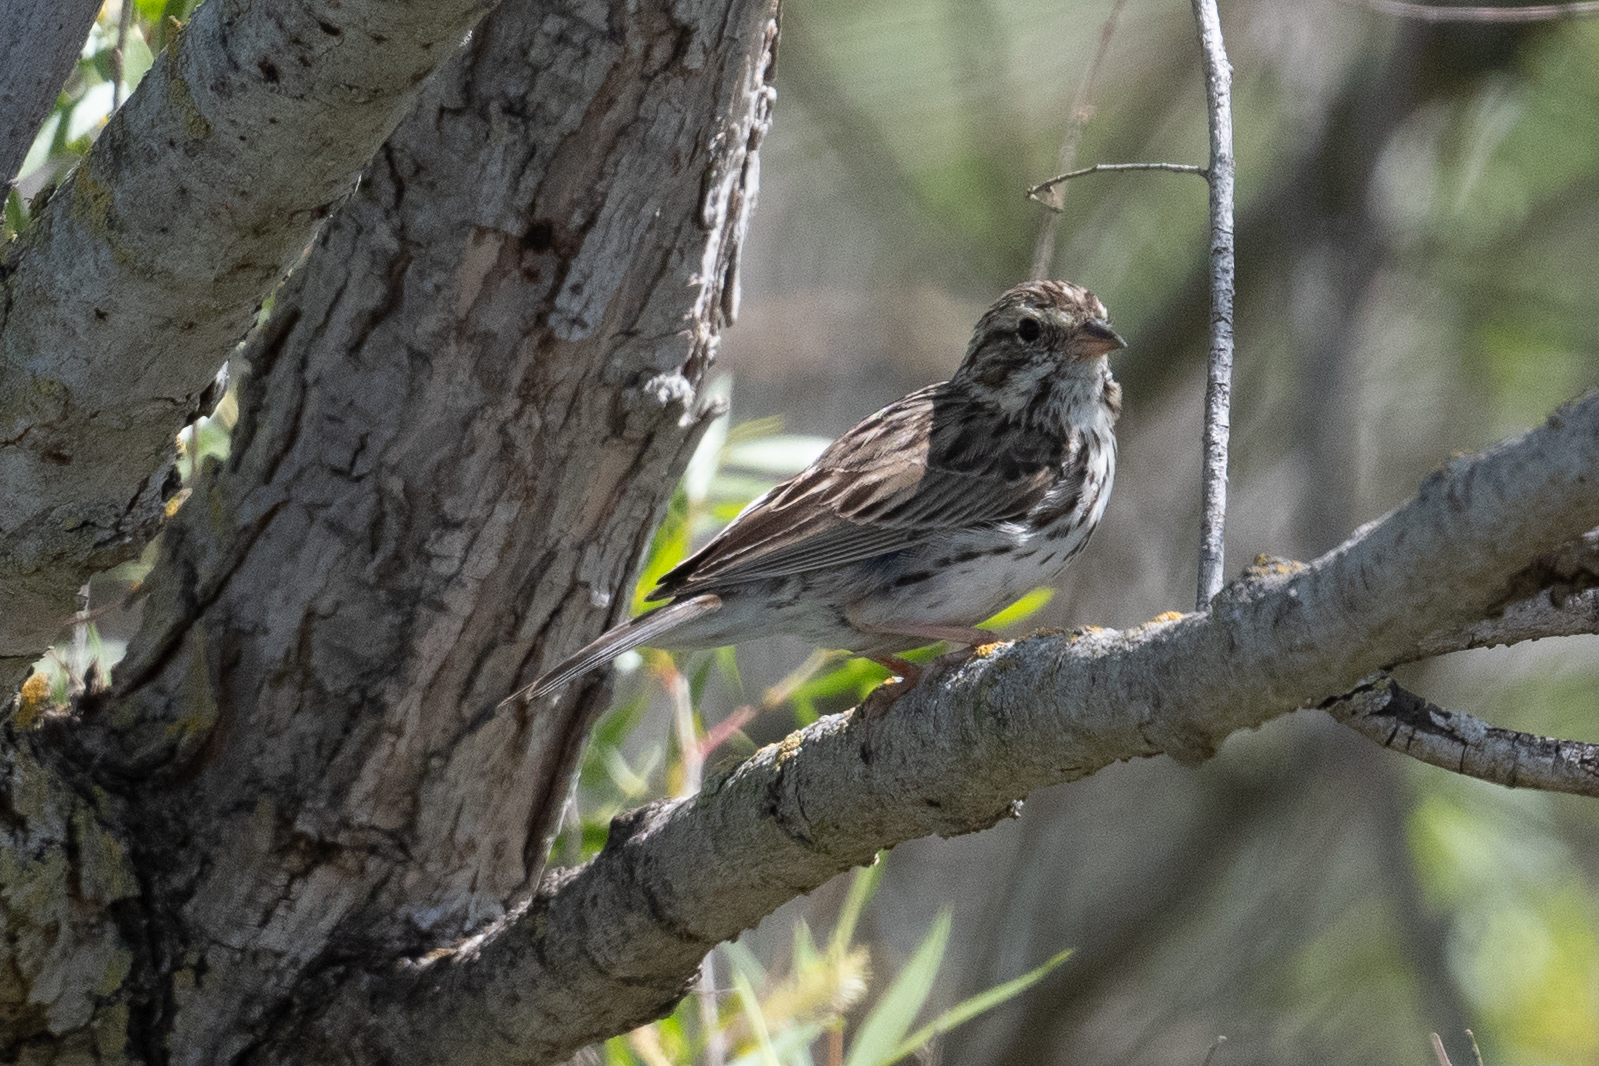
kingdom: Animalia
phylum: Chordata
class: Aves
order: Passeriformes
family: Passerellidae
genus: Passerculus
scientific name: Passerculus sandwichensis
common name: Savannah sparrow
